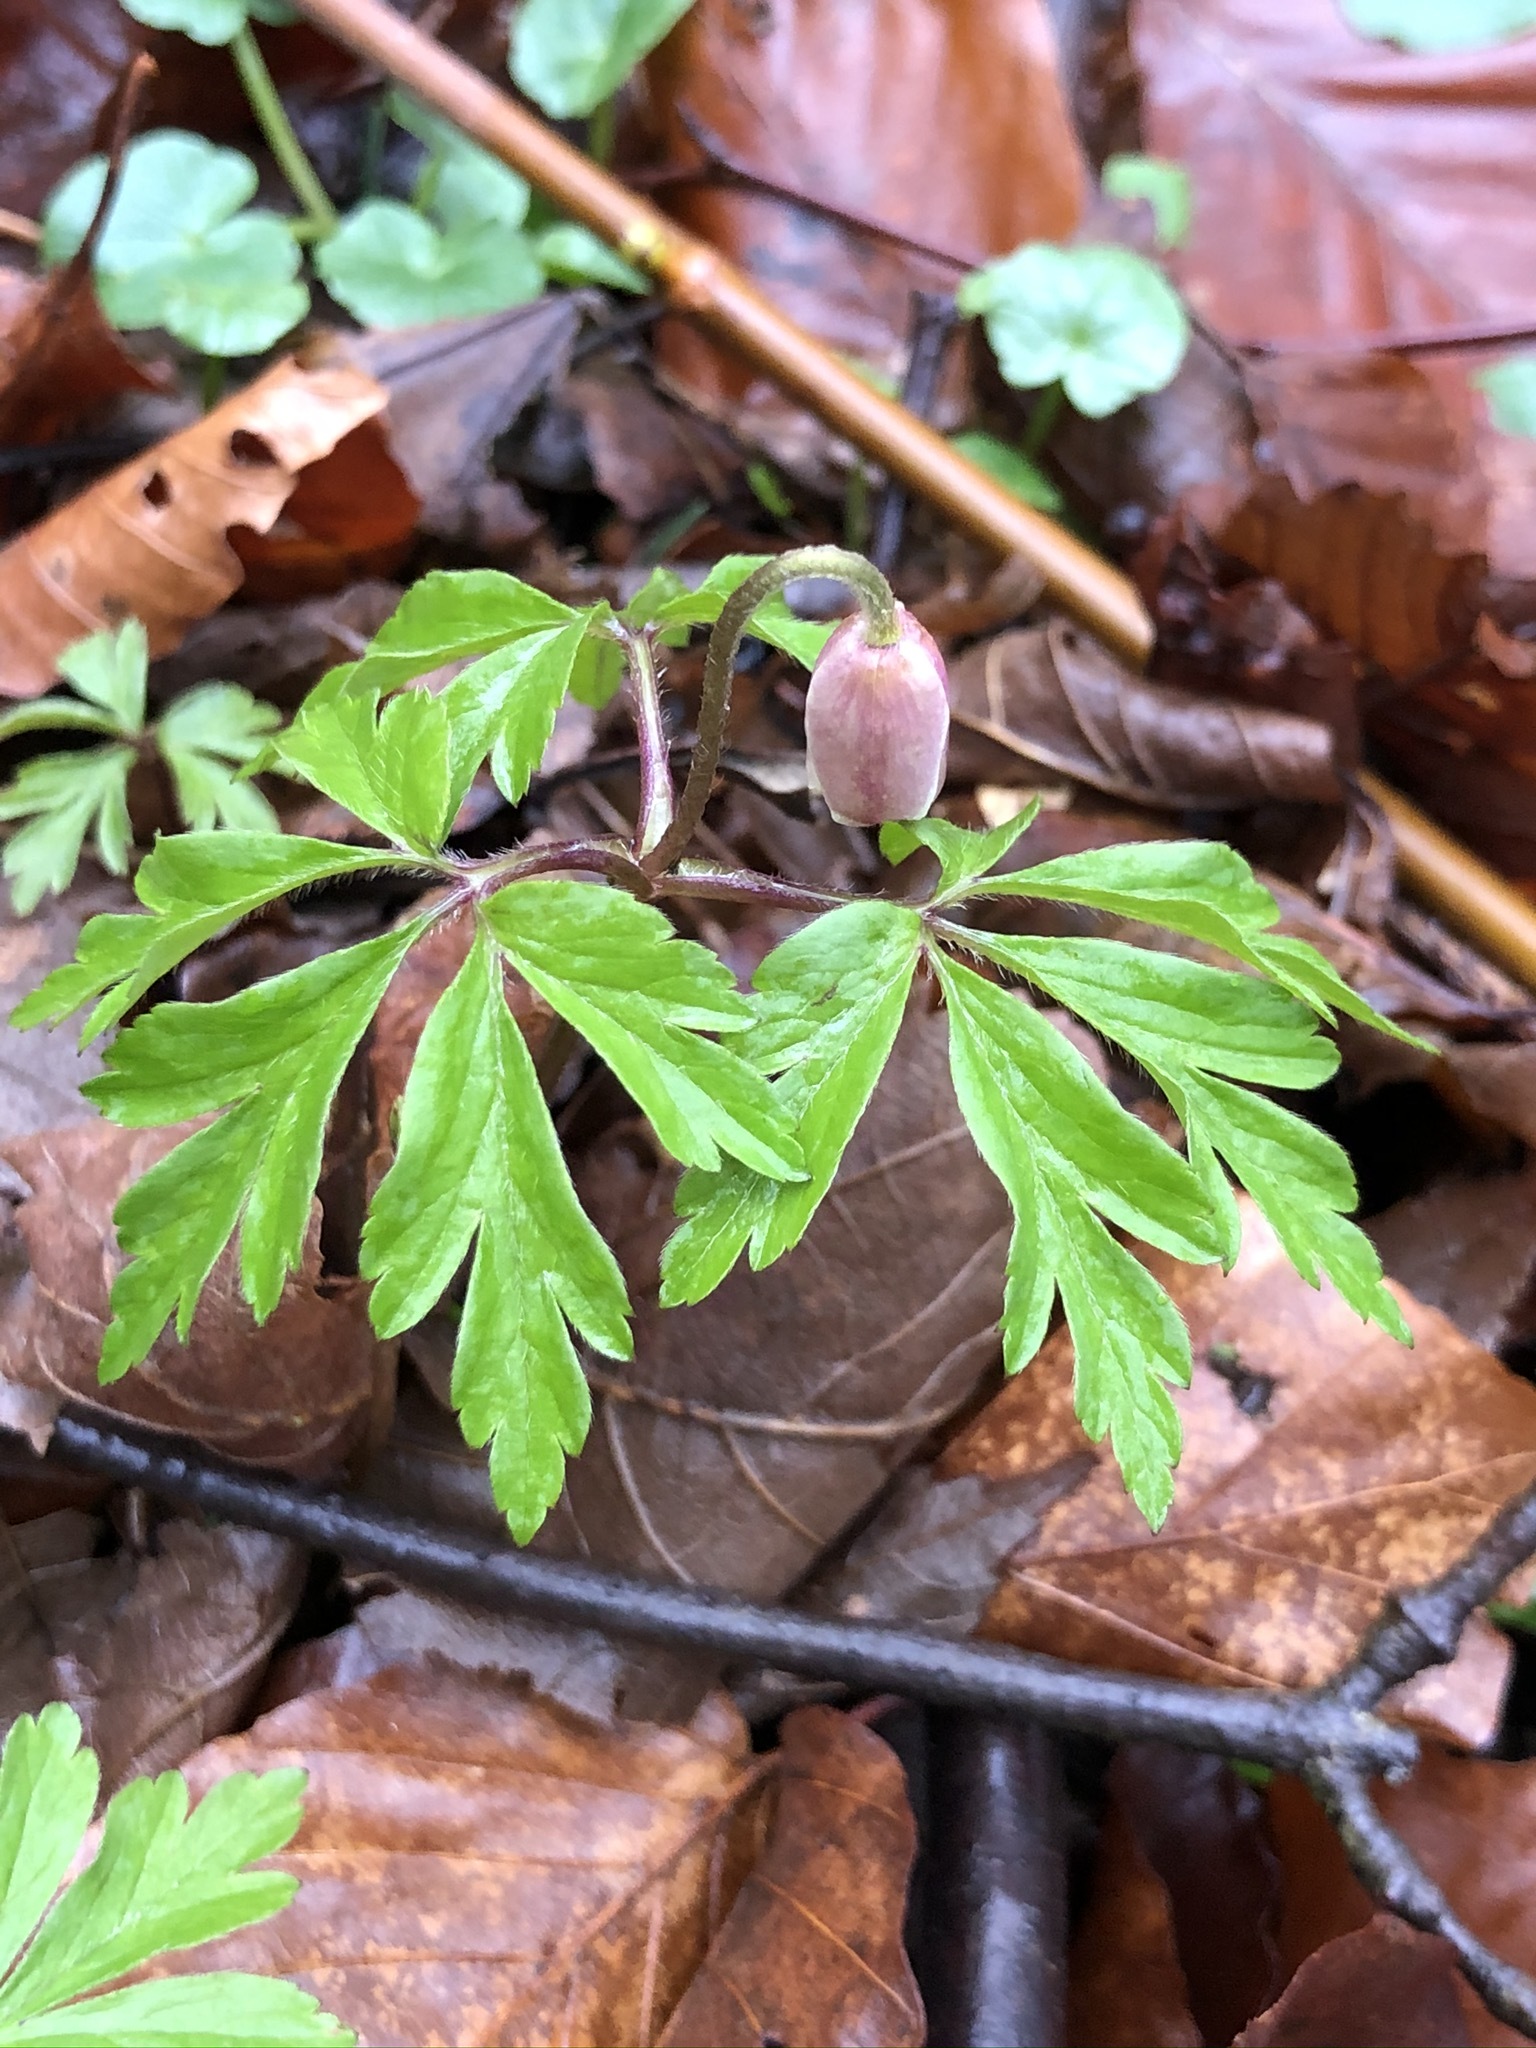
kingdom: Plantae
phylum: Tracheophyta
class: Magnoliopsida
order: Ranunculales
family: Ranunculaceae
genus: Anemone
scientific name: Anemone nemorosa
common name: Wood anemone
